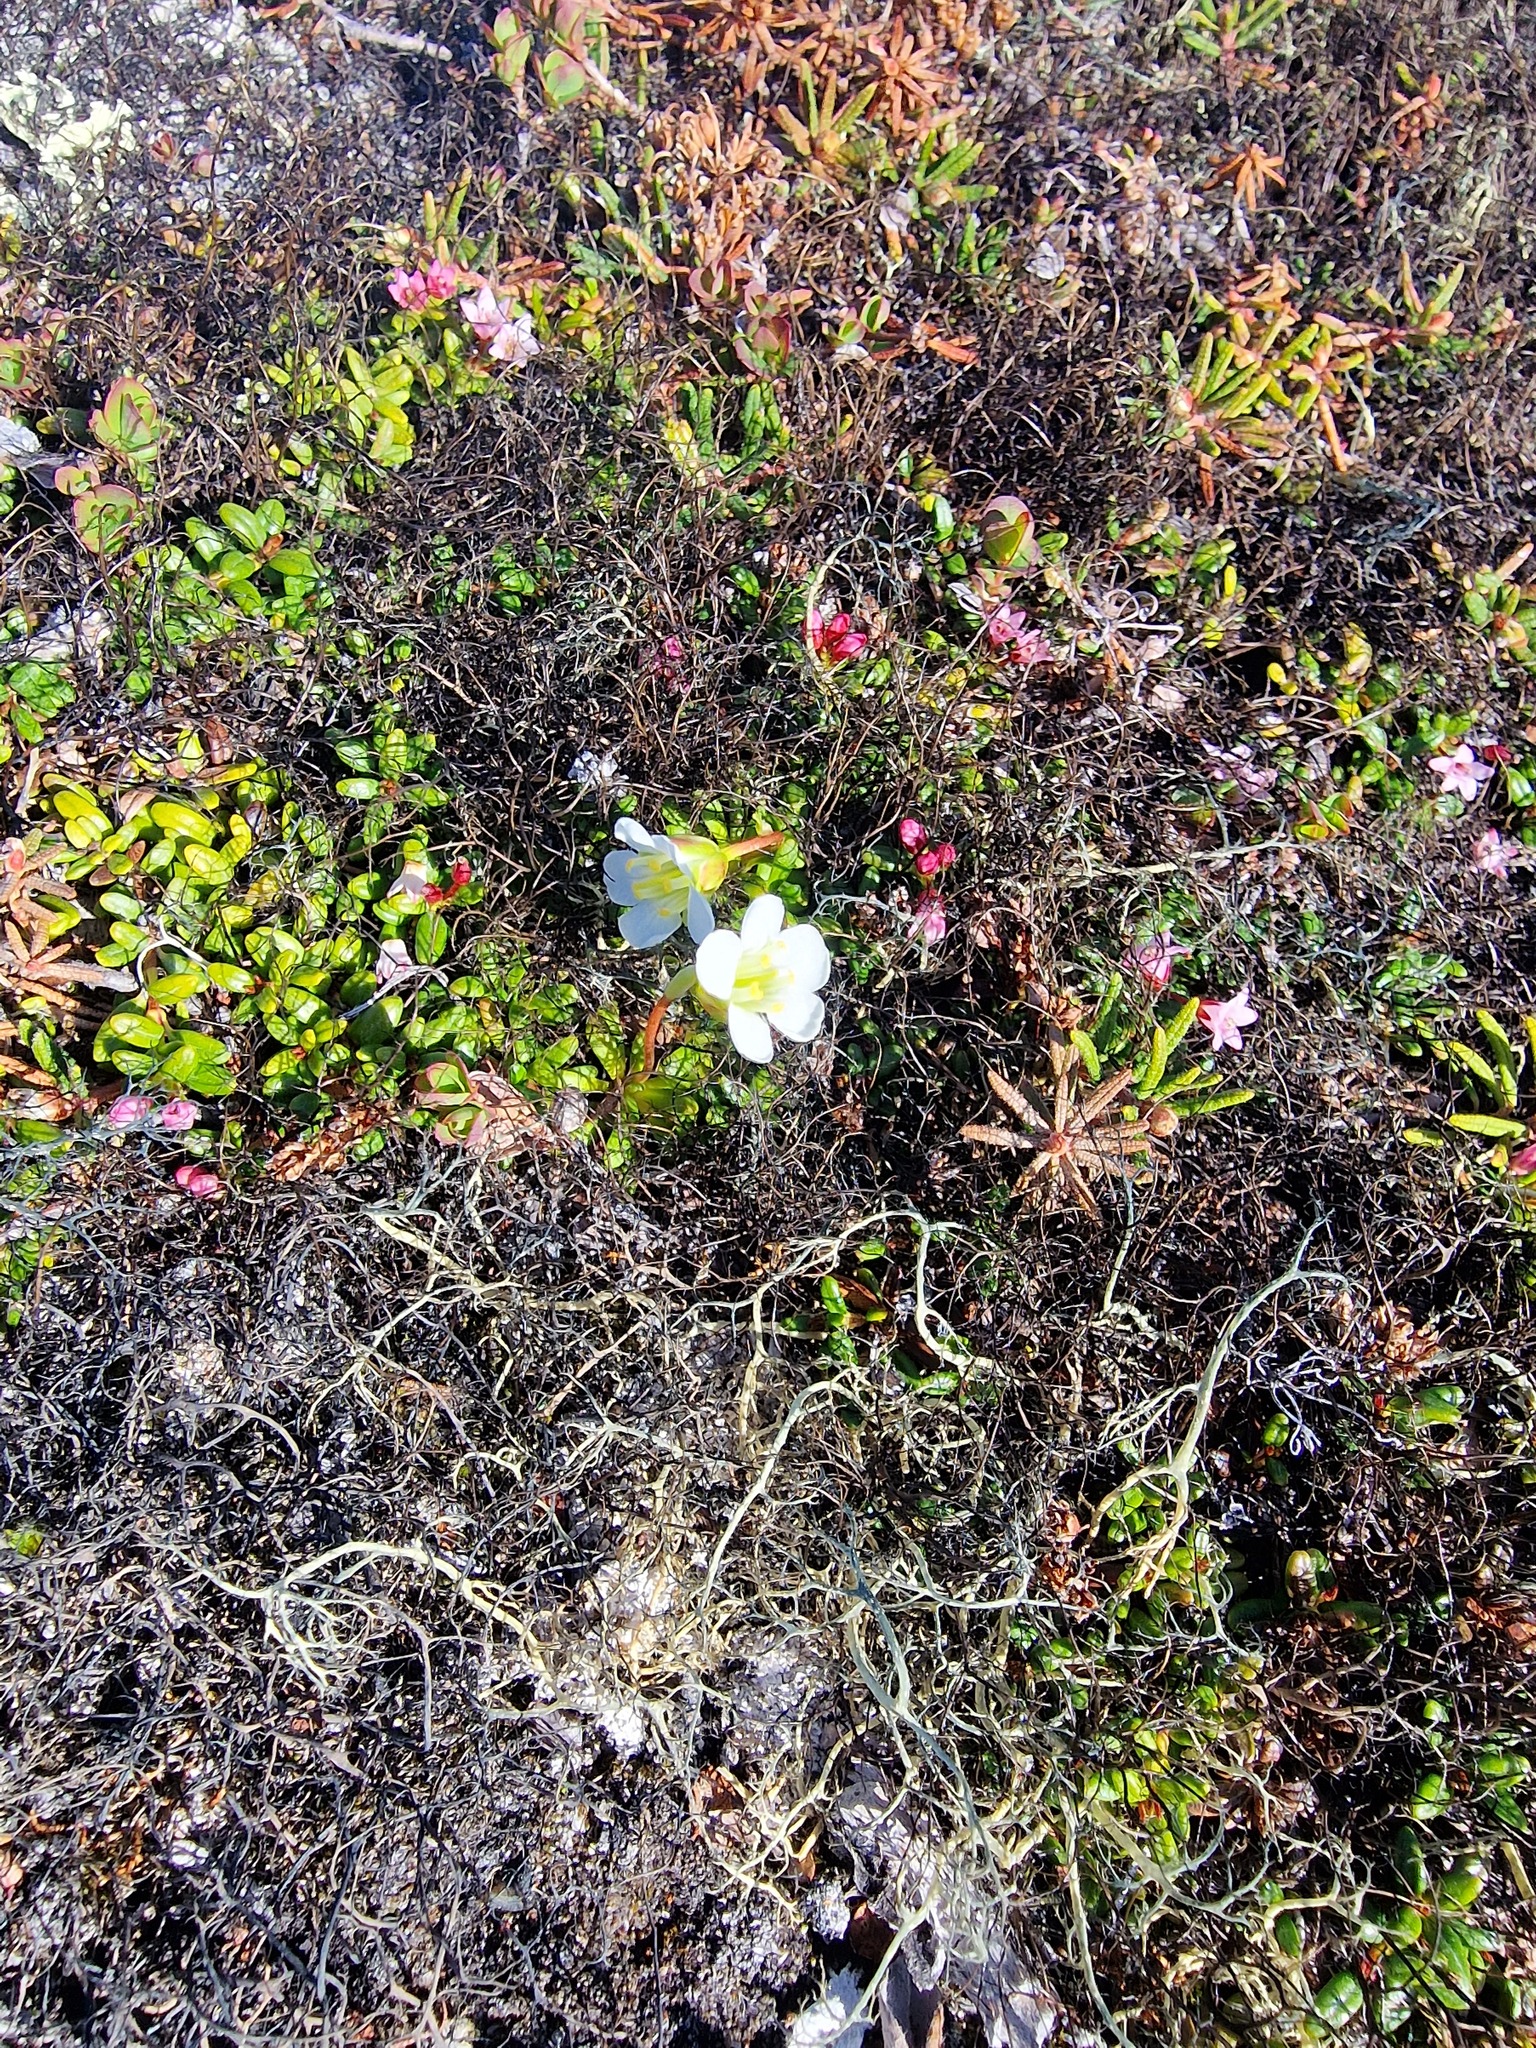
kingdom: Plantae
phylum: Tracheophyta
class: Magnoliopsida
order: Ericales
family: Diapensiaceae
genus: Diapensia
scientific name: Diapensia lapponica
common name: Diapensia
